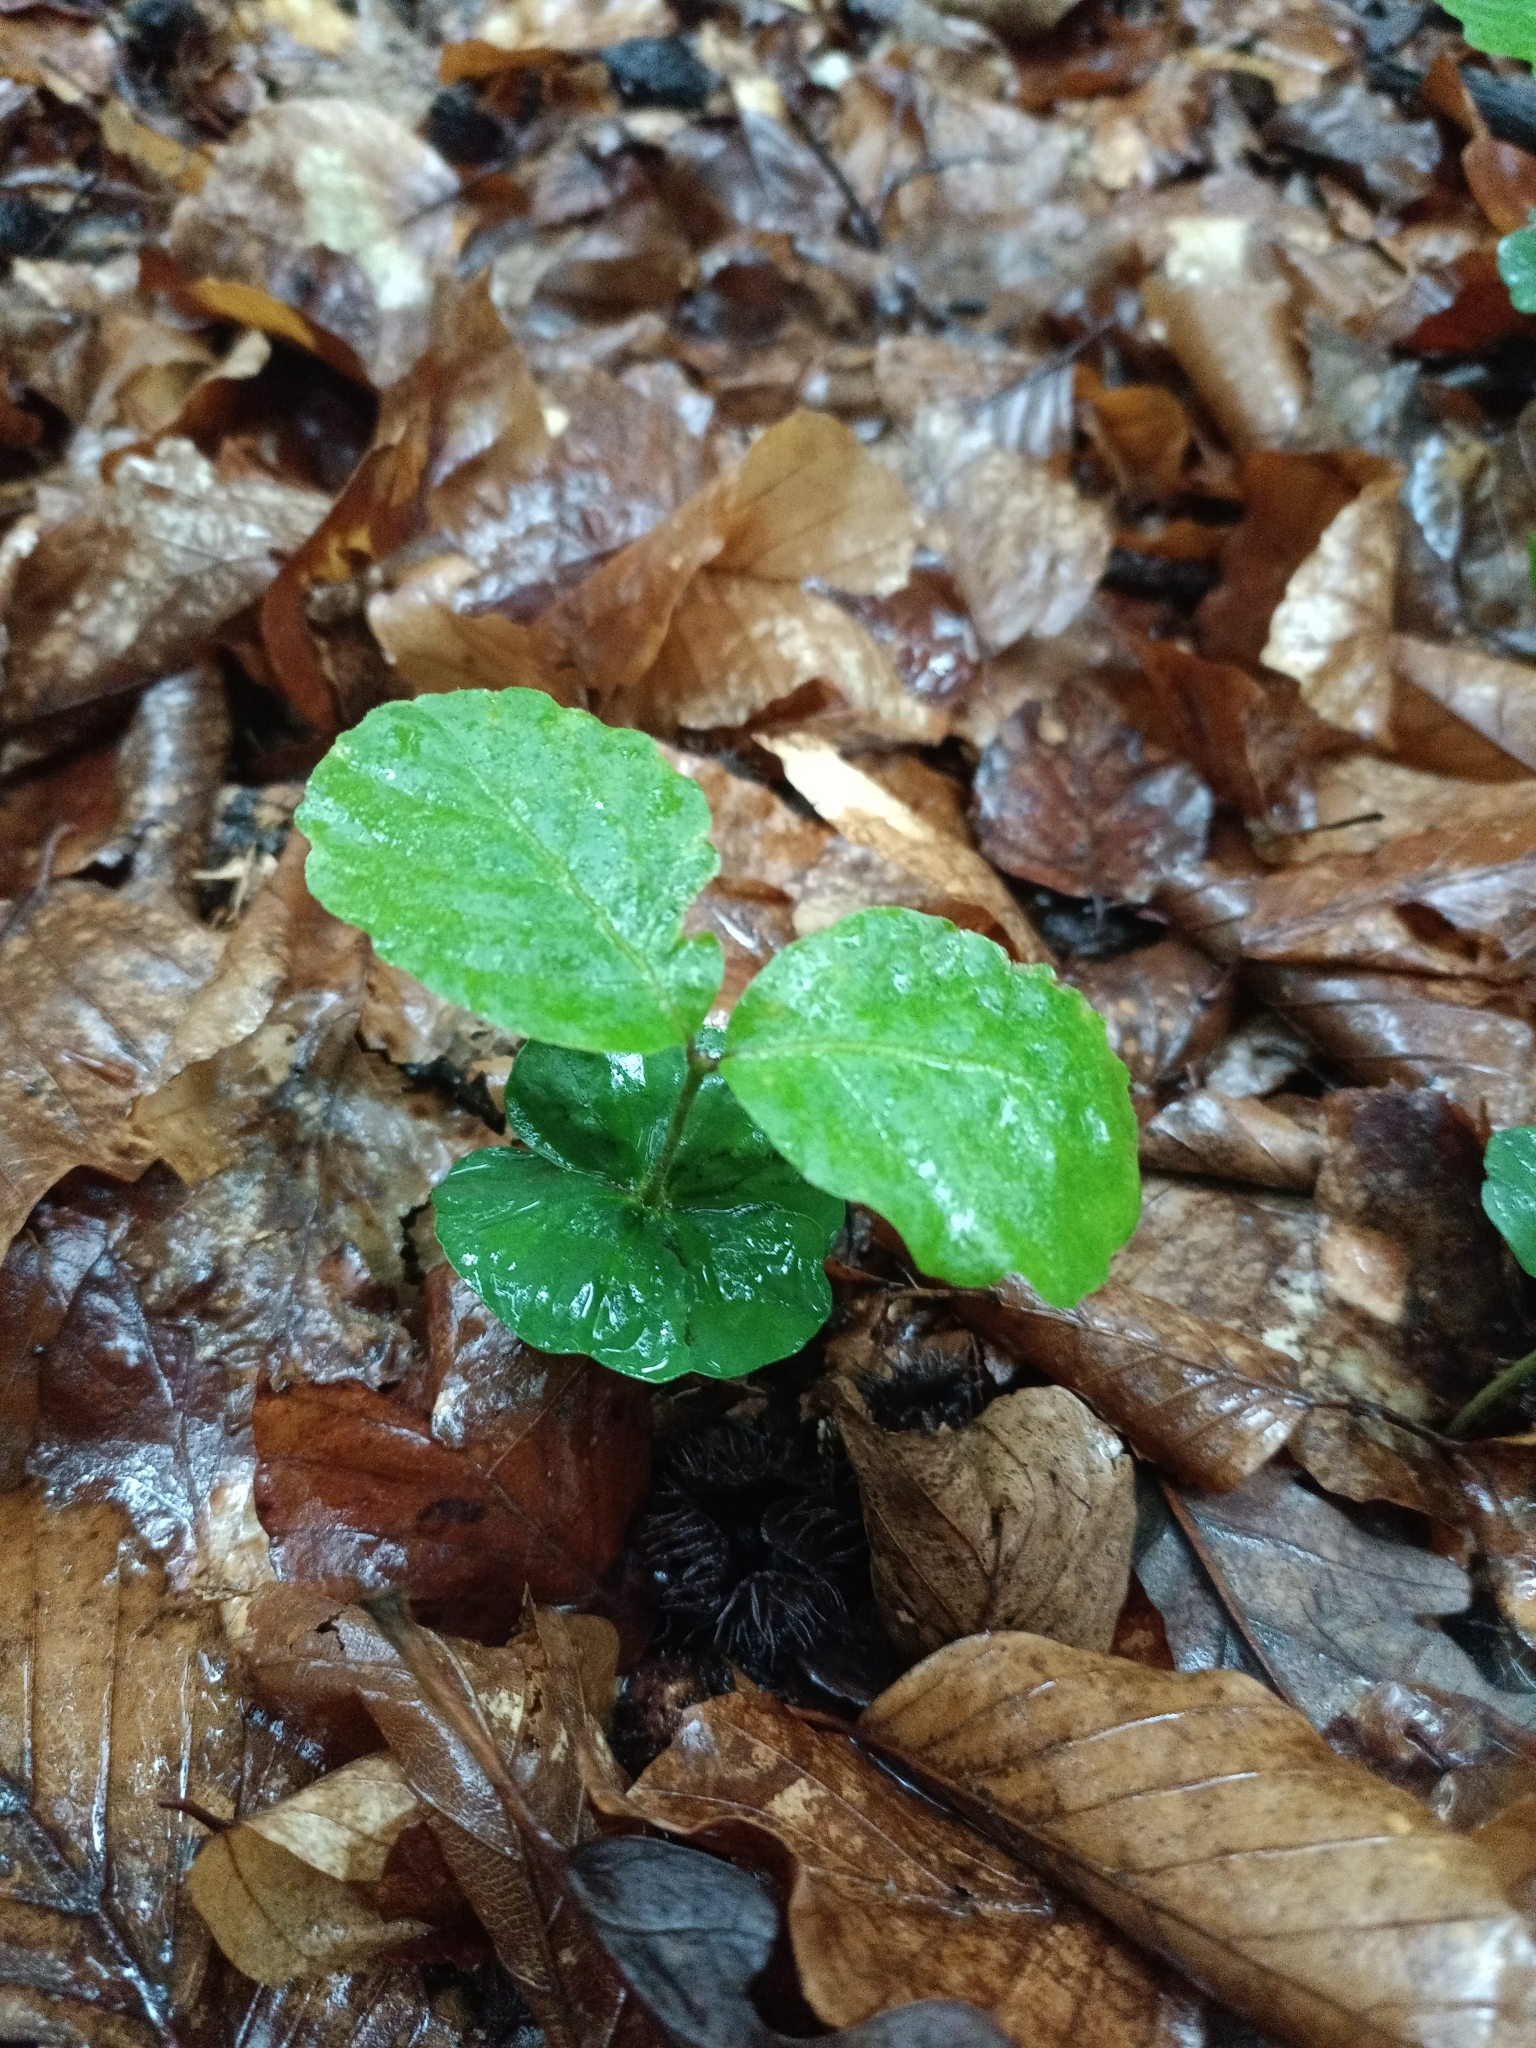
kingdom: Plantae
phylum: Tracheophyta
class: Magnoliopsida
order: Fagales
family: Fagaceae
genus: Fagus
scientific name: Fagus sylvatica
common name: Beech
